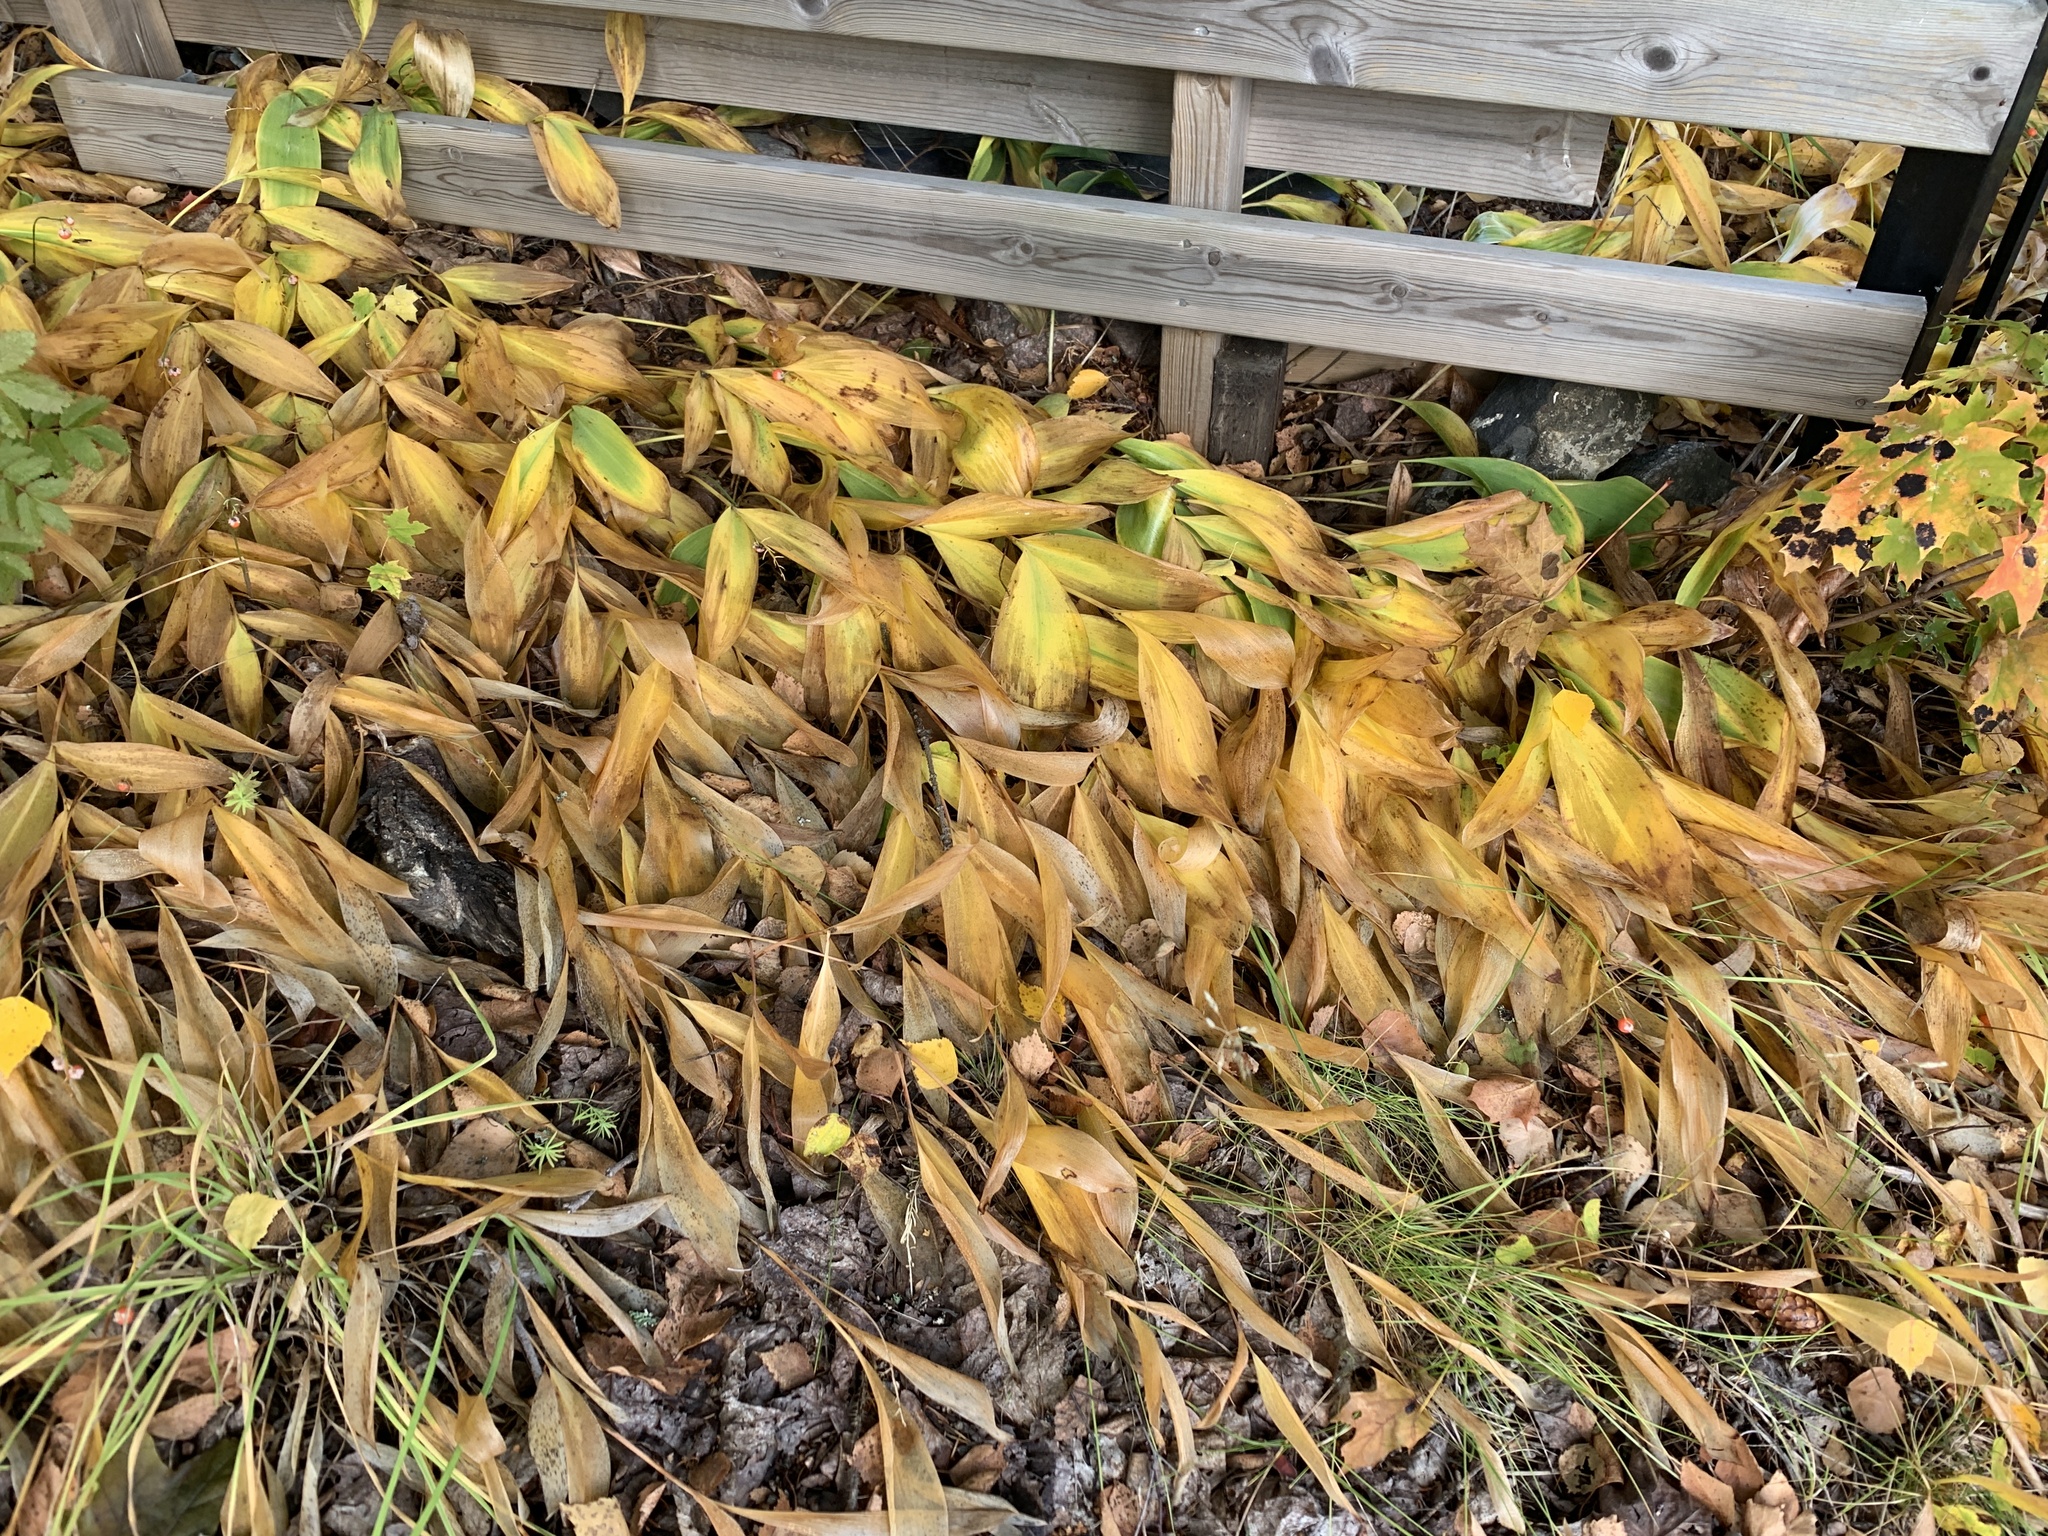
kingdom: Plantae
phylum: Tracheophyta
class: Liliopsida
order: Asparagales
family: Asparagaceae
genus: Convallaria
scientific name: Convallaria majalis
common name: Lily-of-the-valley
